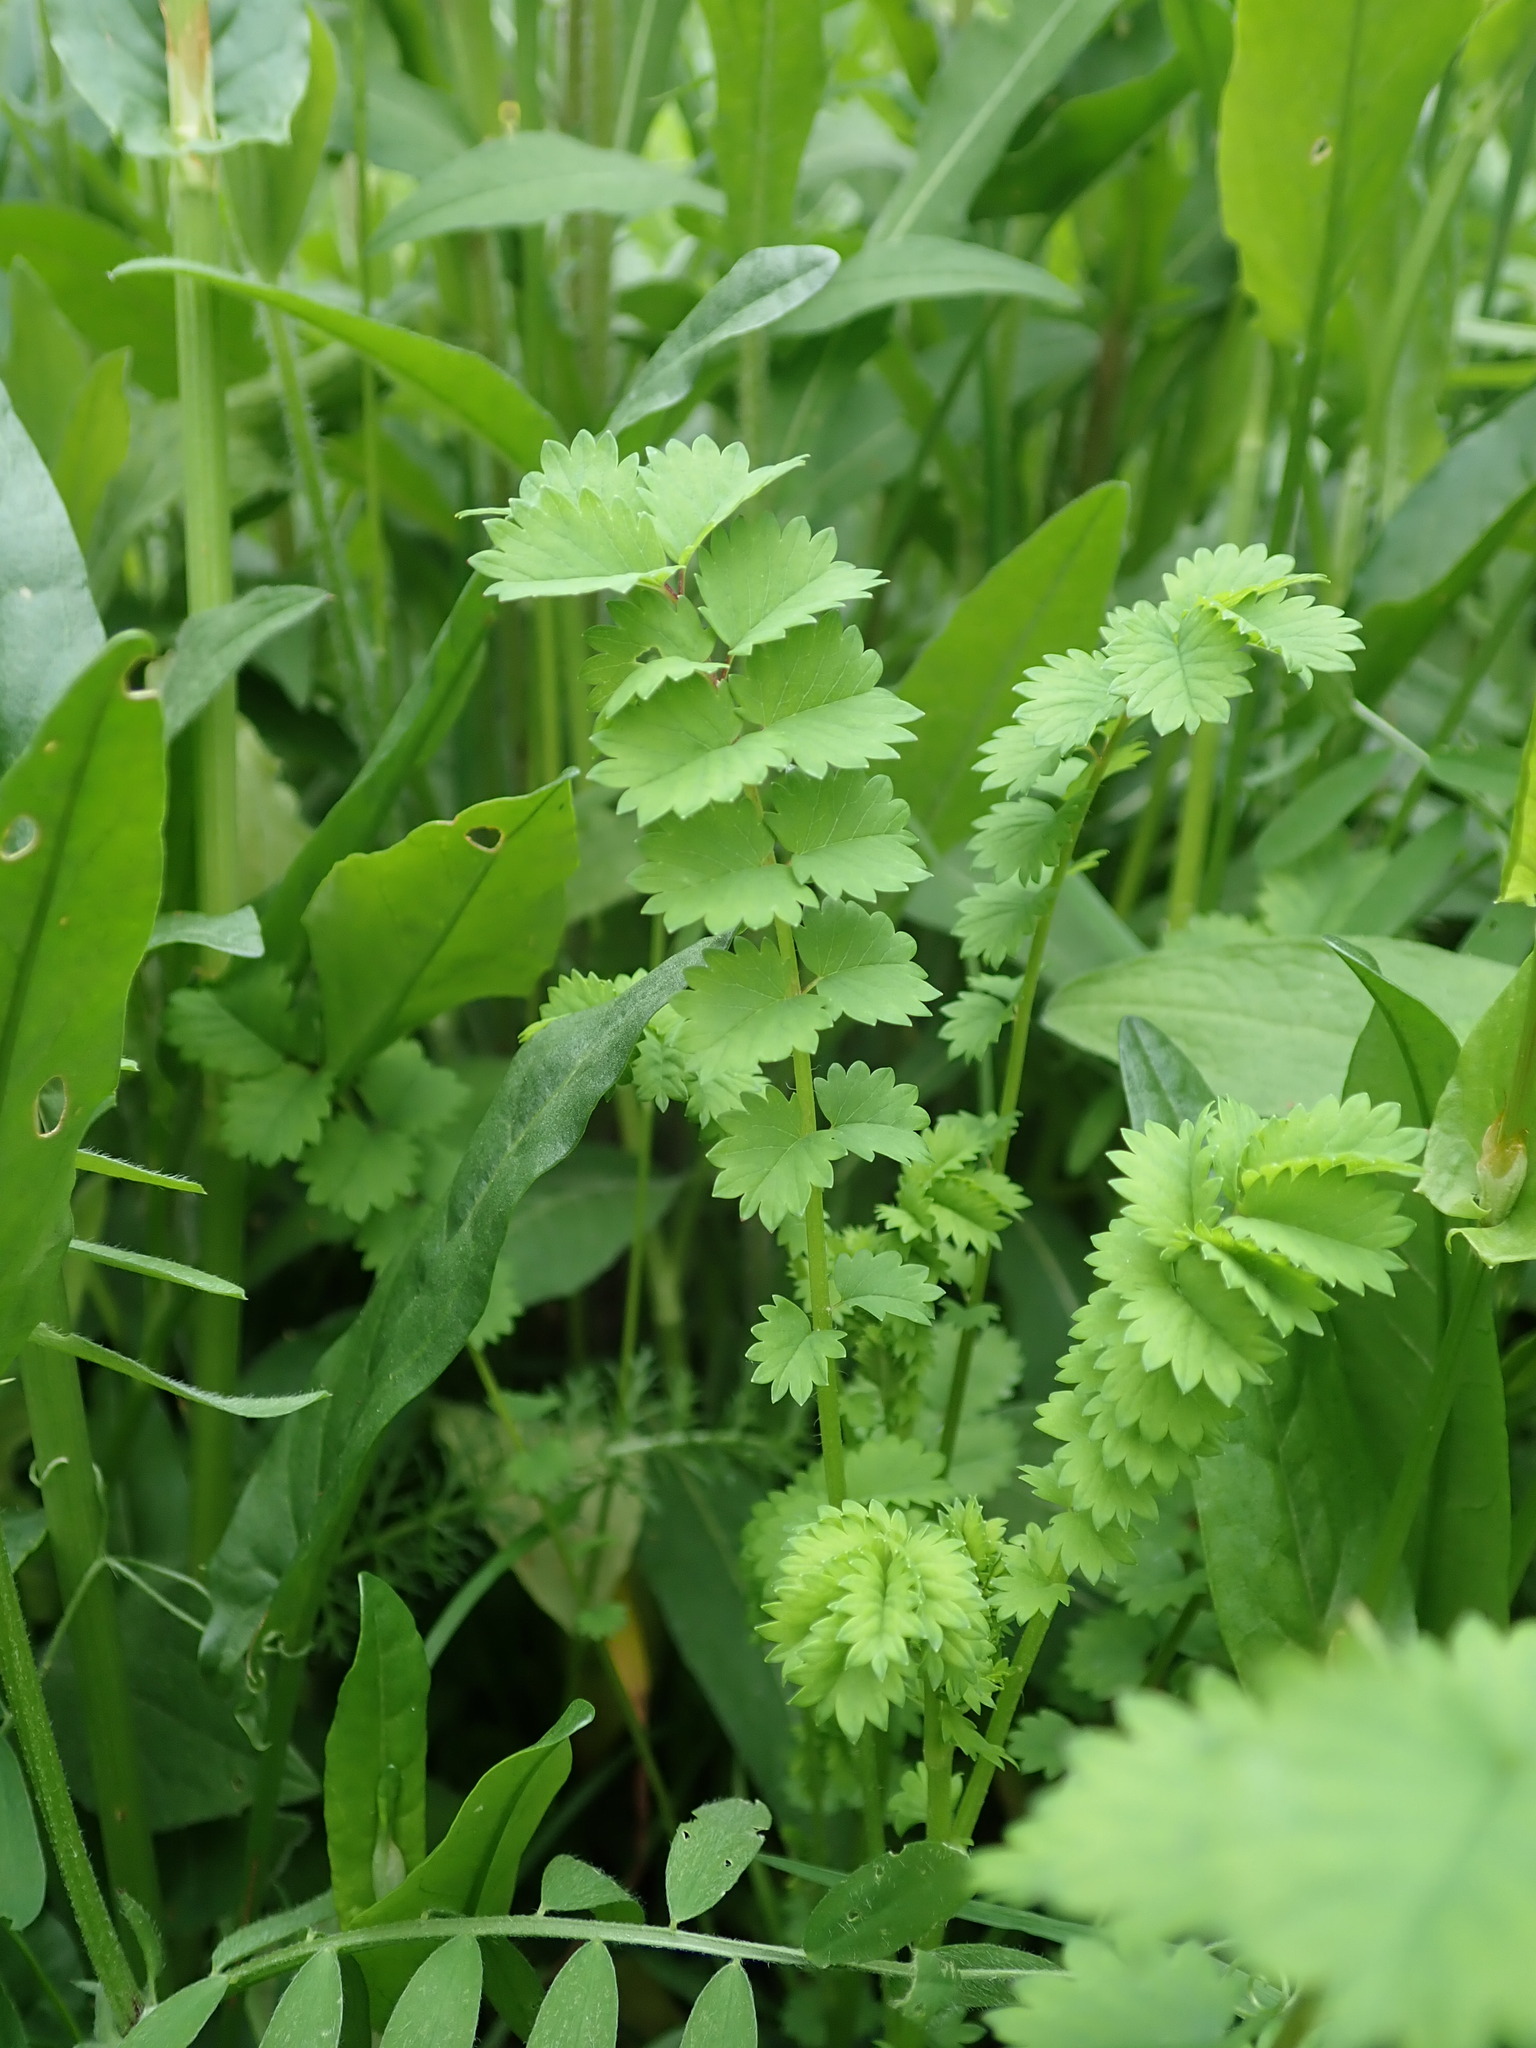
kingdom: Plantae
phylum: Tracheophyta
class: Magnoliopsida
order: Rosales
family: Rosaceae
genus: Poterium
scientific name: Poterium sanguisorba
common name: Salad burnet
